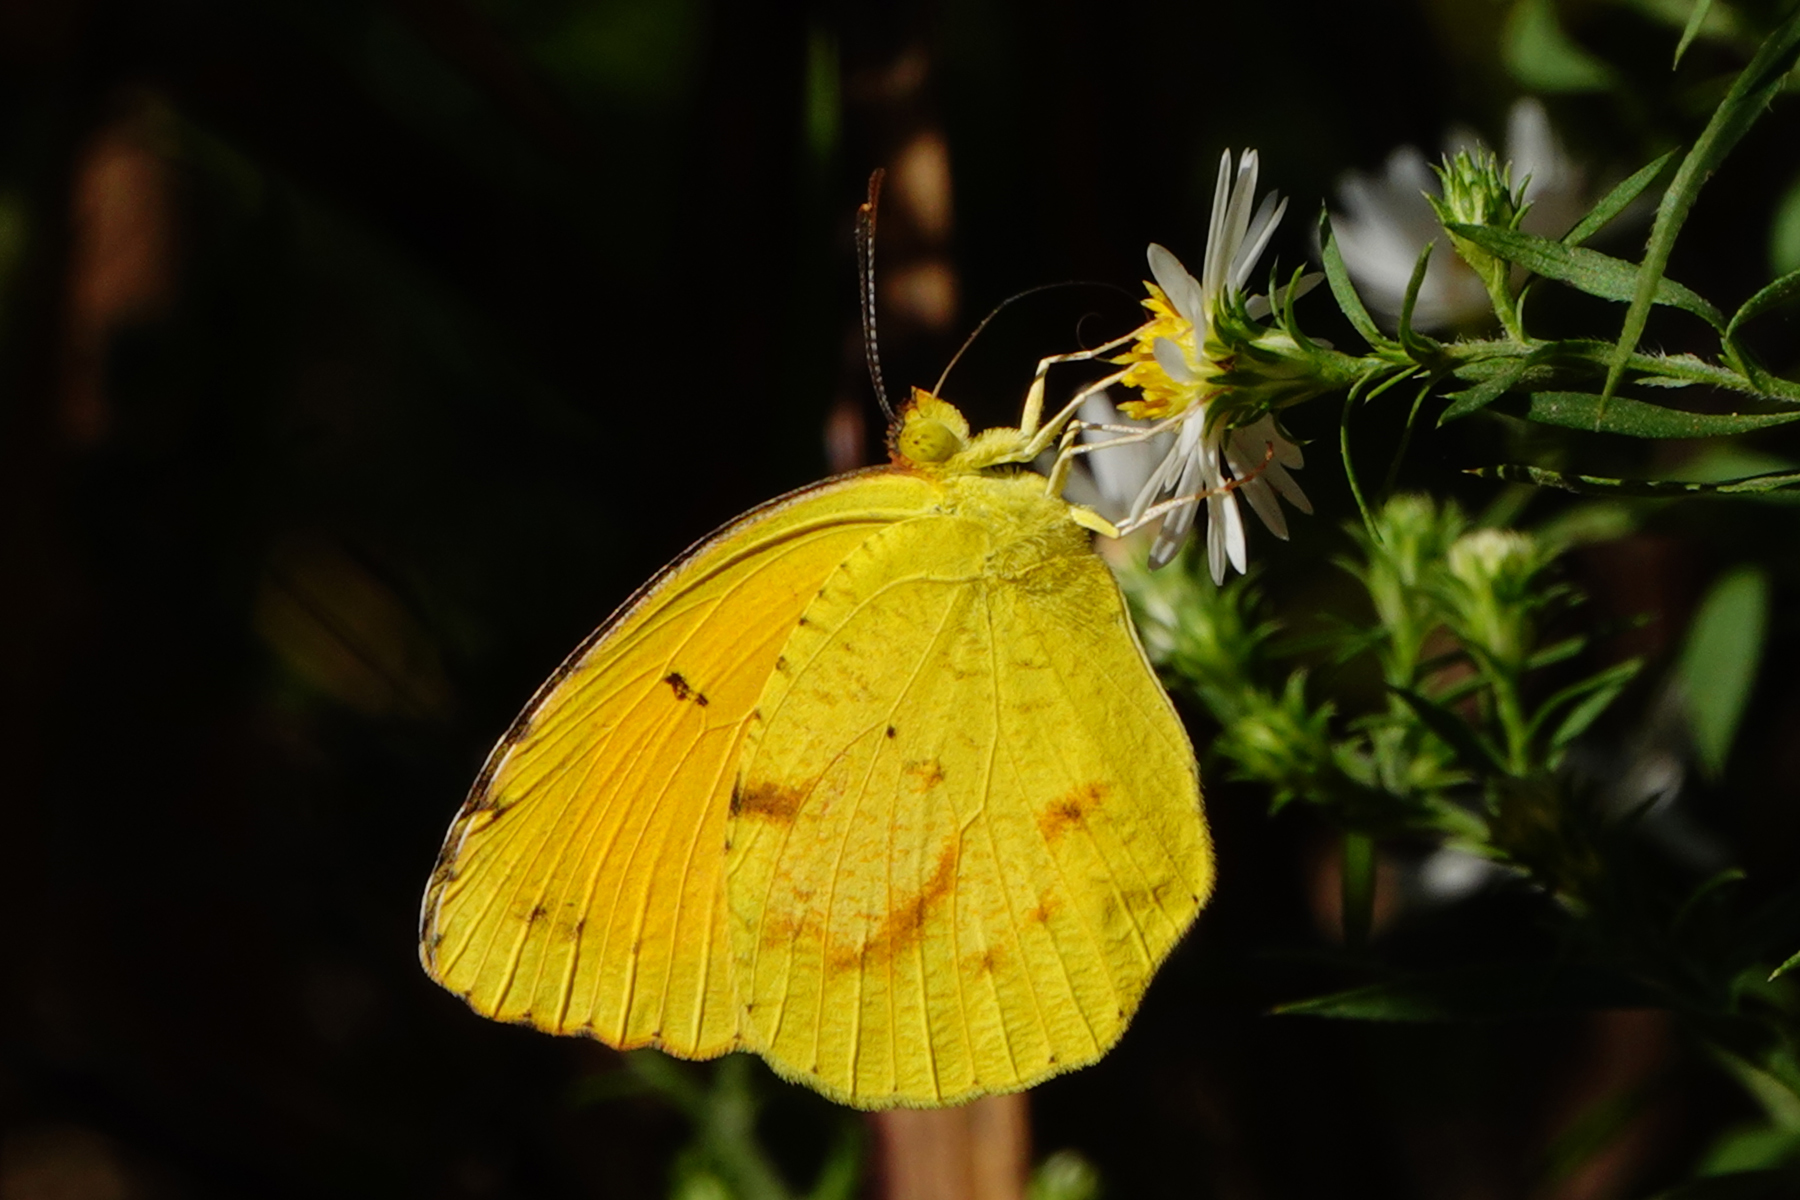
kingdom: Animalia
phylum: Arthropoda
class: Insecta
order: Lepidoptera
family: Pieridae
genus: Abaeis
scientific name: Abaeis nicippe
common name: Sleepy orange
